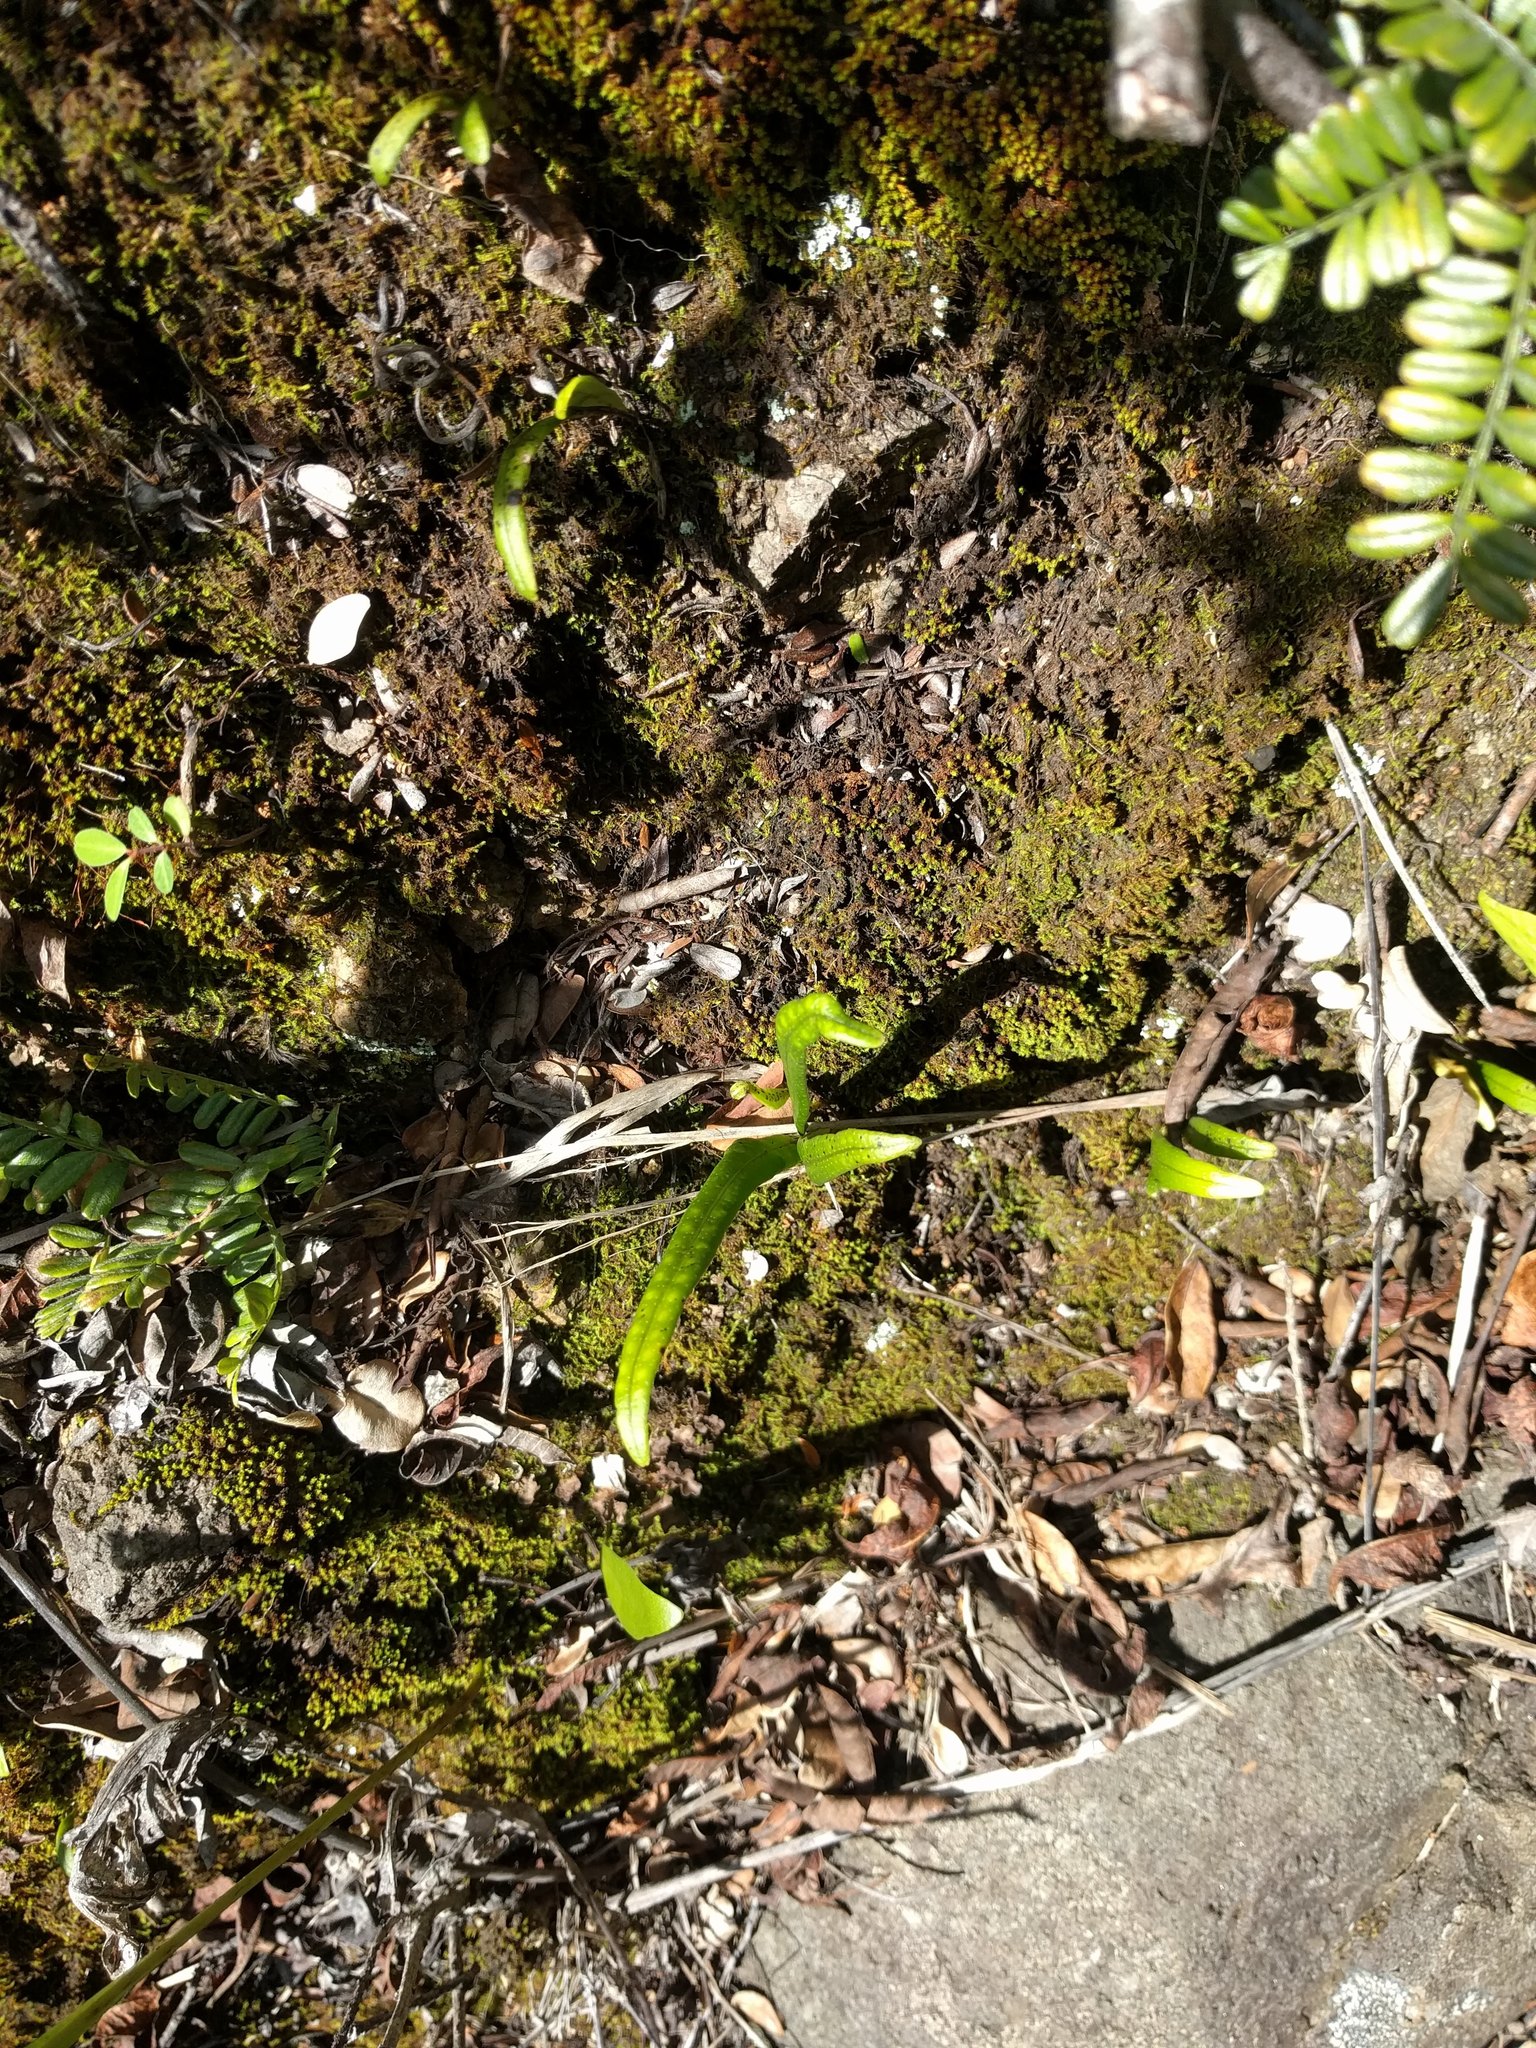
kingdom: Plantae
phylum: Tracheophyta
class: Polypodiopsida
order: Polypodiales
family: Polypodiaceae
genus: Lepisorus
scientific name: Lepisorus thunbergianus
